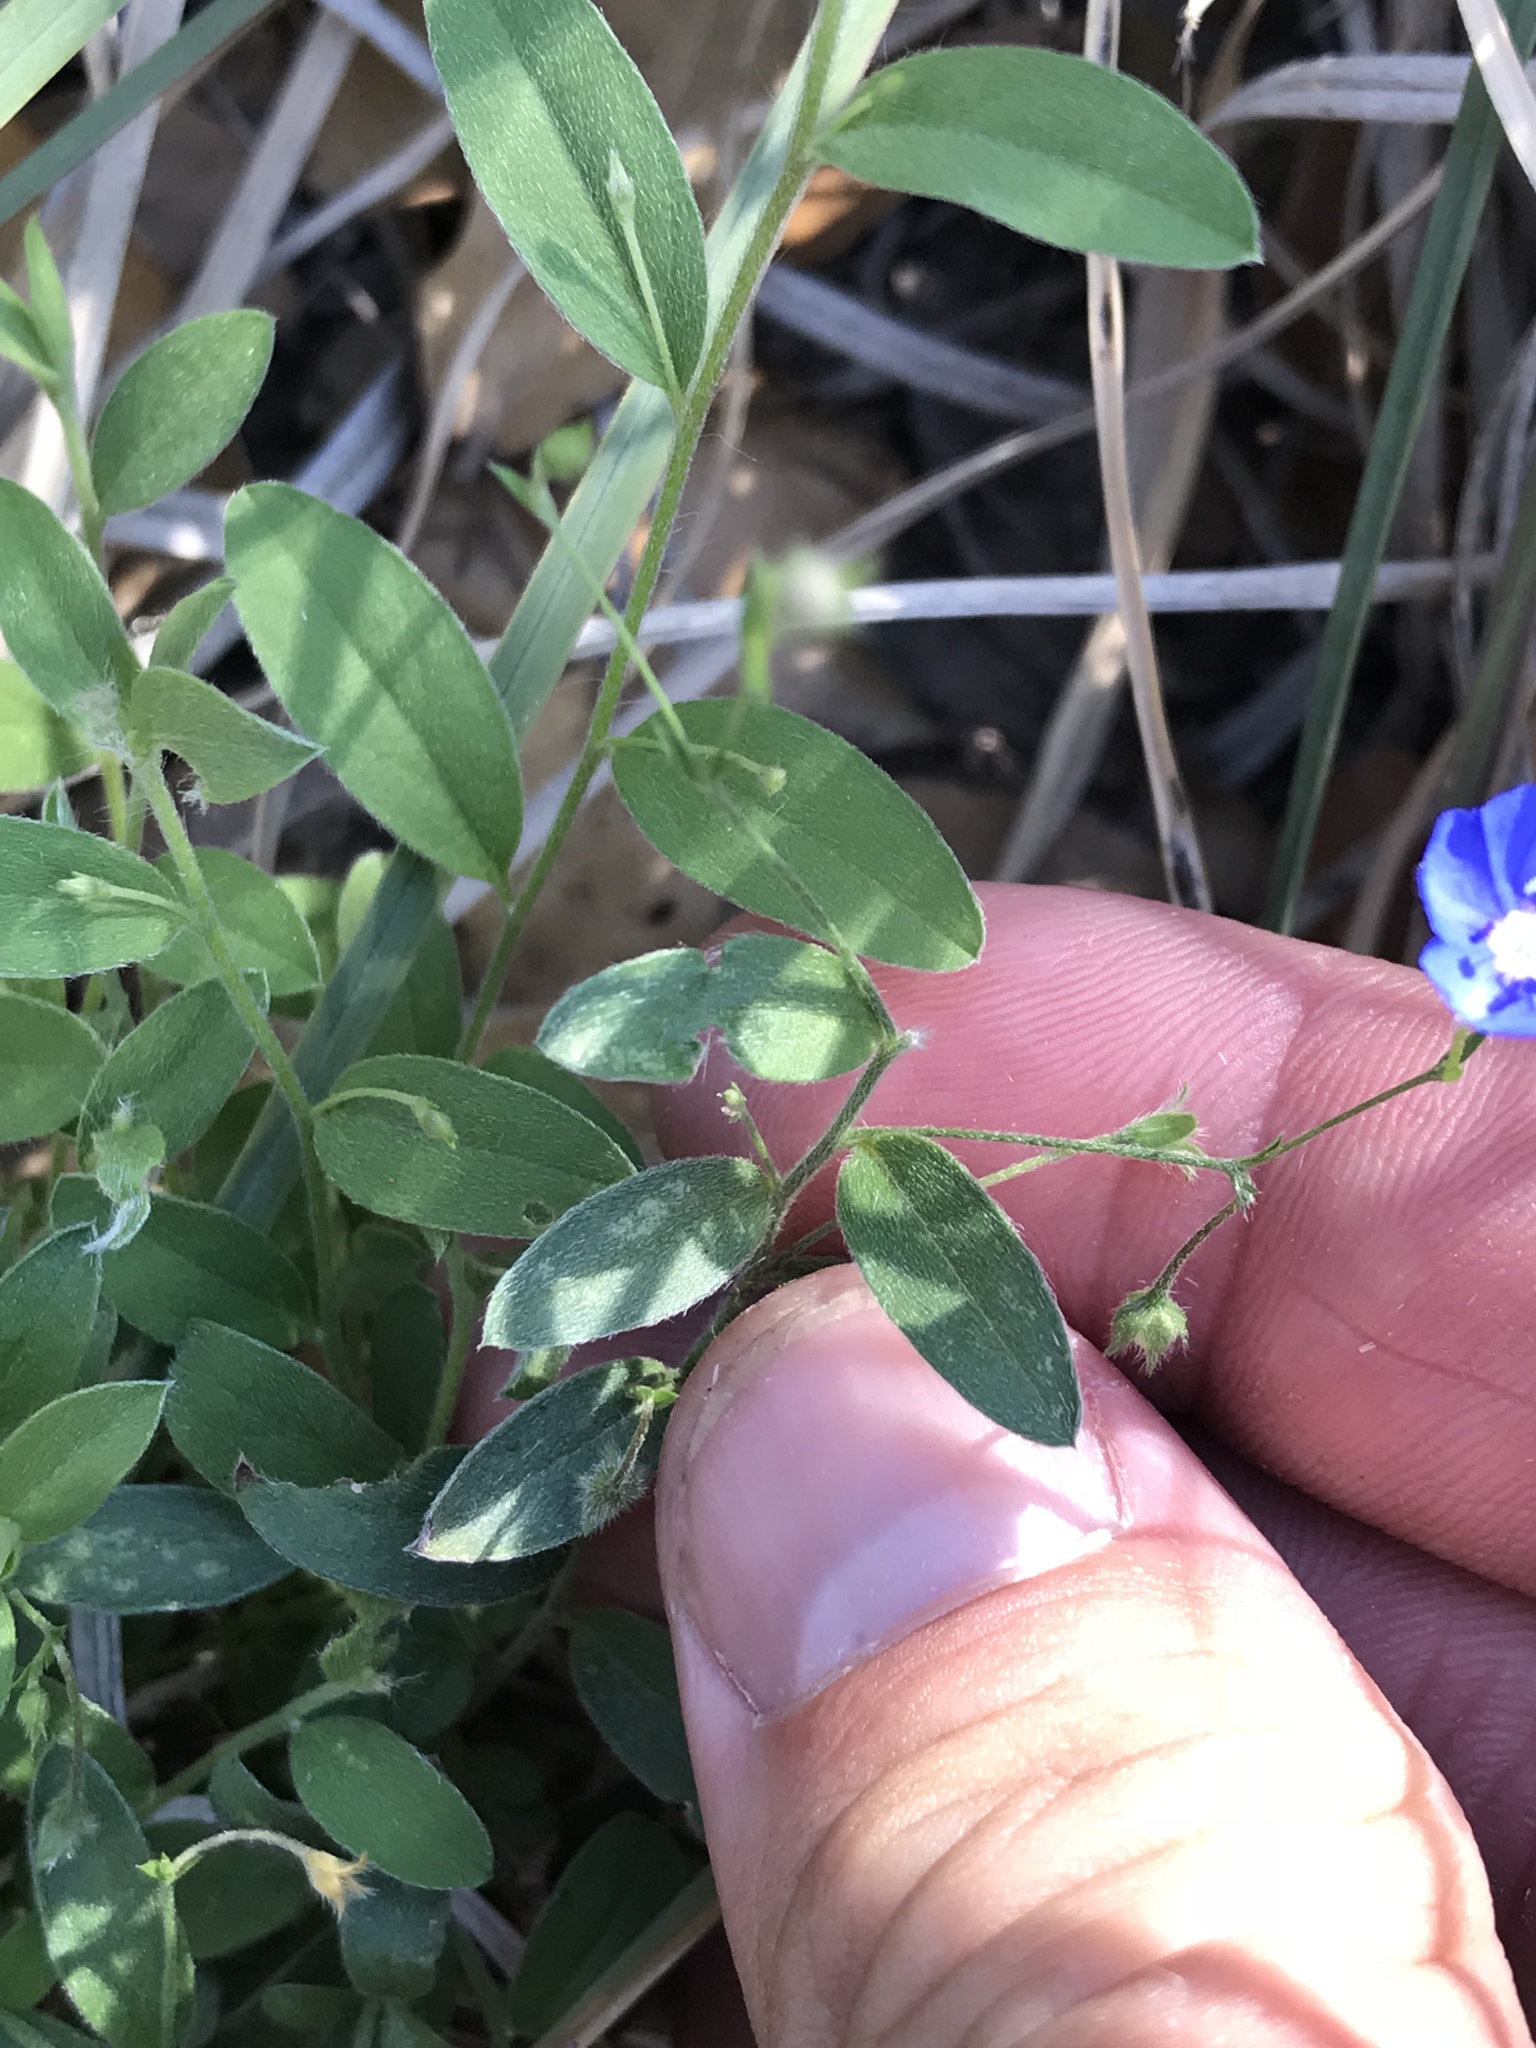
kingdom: Plantae
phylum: Tracheophyta
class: Magnoliopsida
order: Solanales
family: Convolvulaceae
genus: Evolvulus
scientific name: Evolvulus alsinoides
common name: Slender dwarf morning-glory
